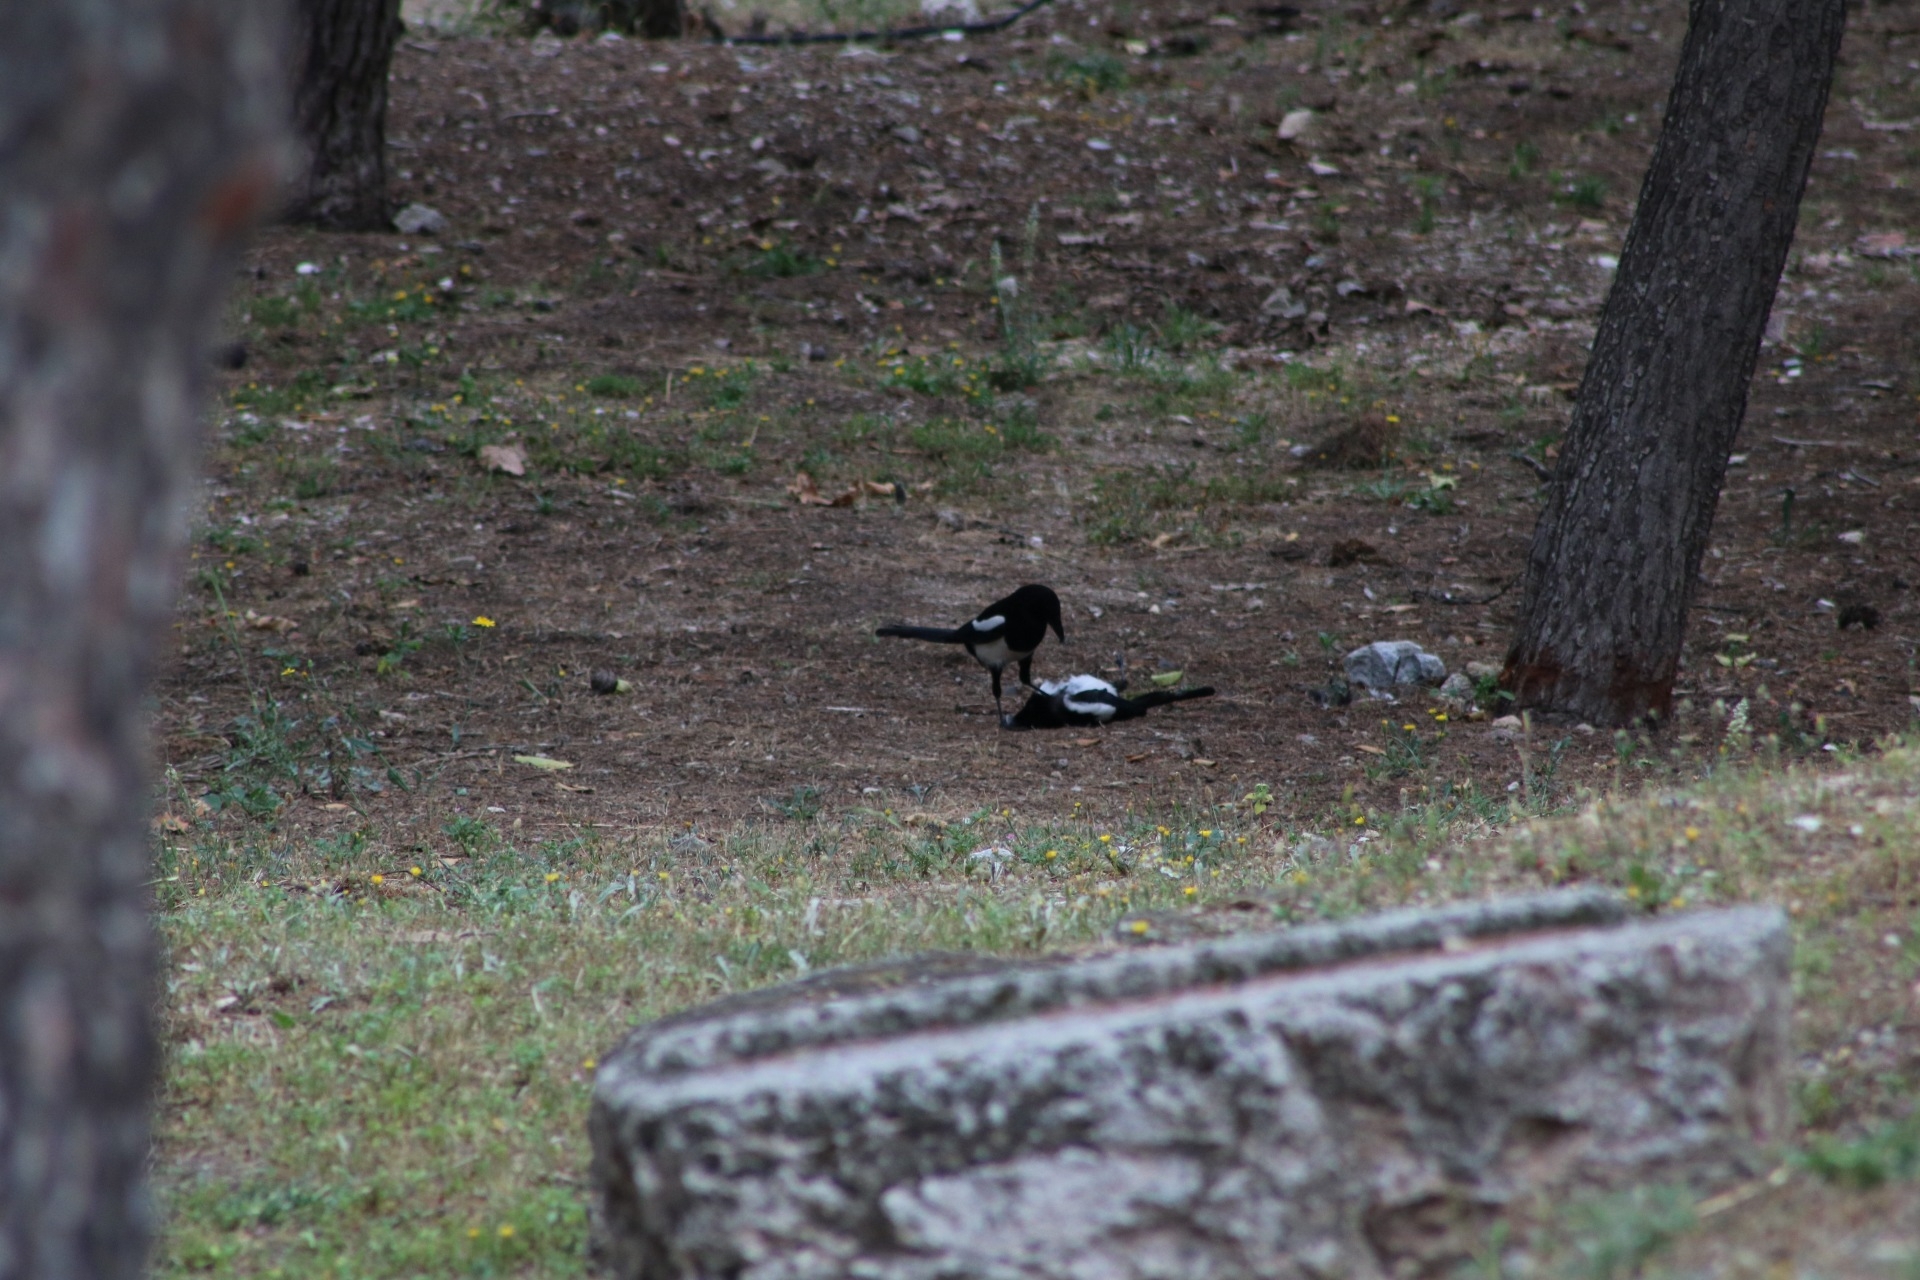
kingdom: Animalia
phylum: Chordata
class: Aves
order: Passeriformes
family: Corvidae
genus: Pica
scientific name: Pica pica
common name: Eurasian magpie
